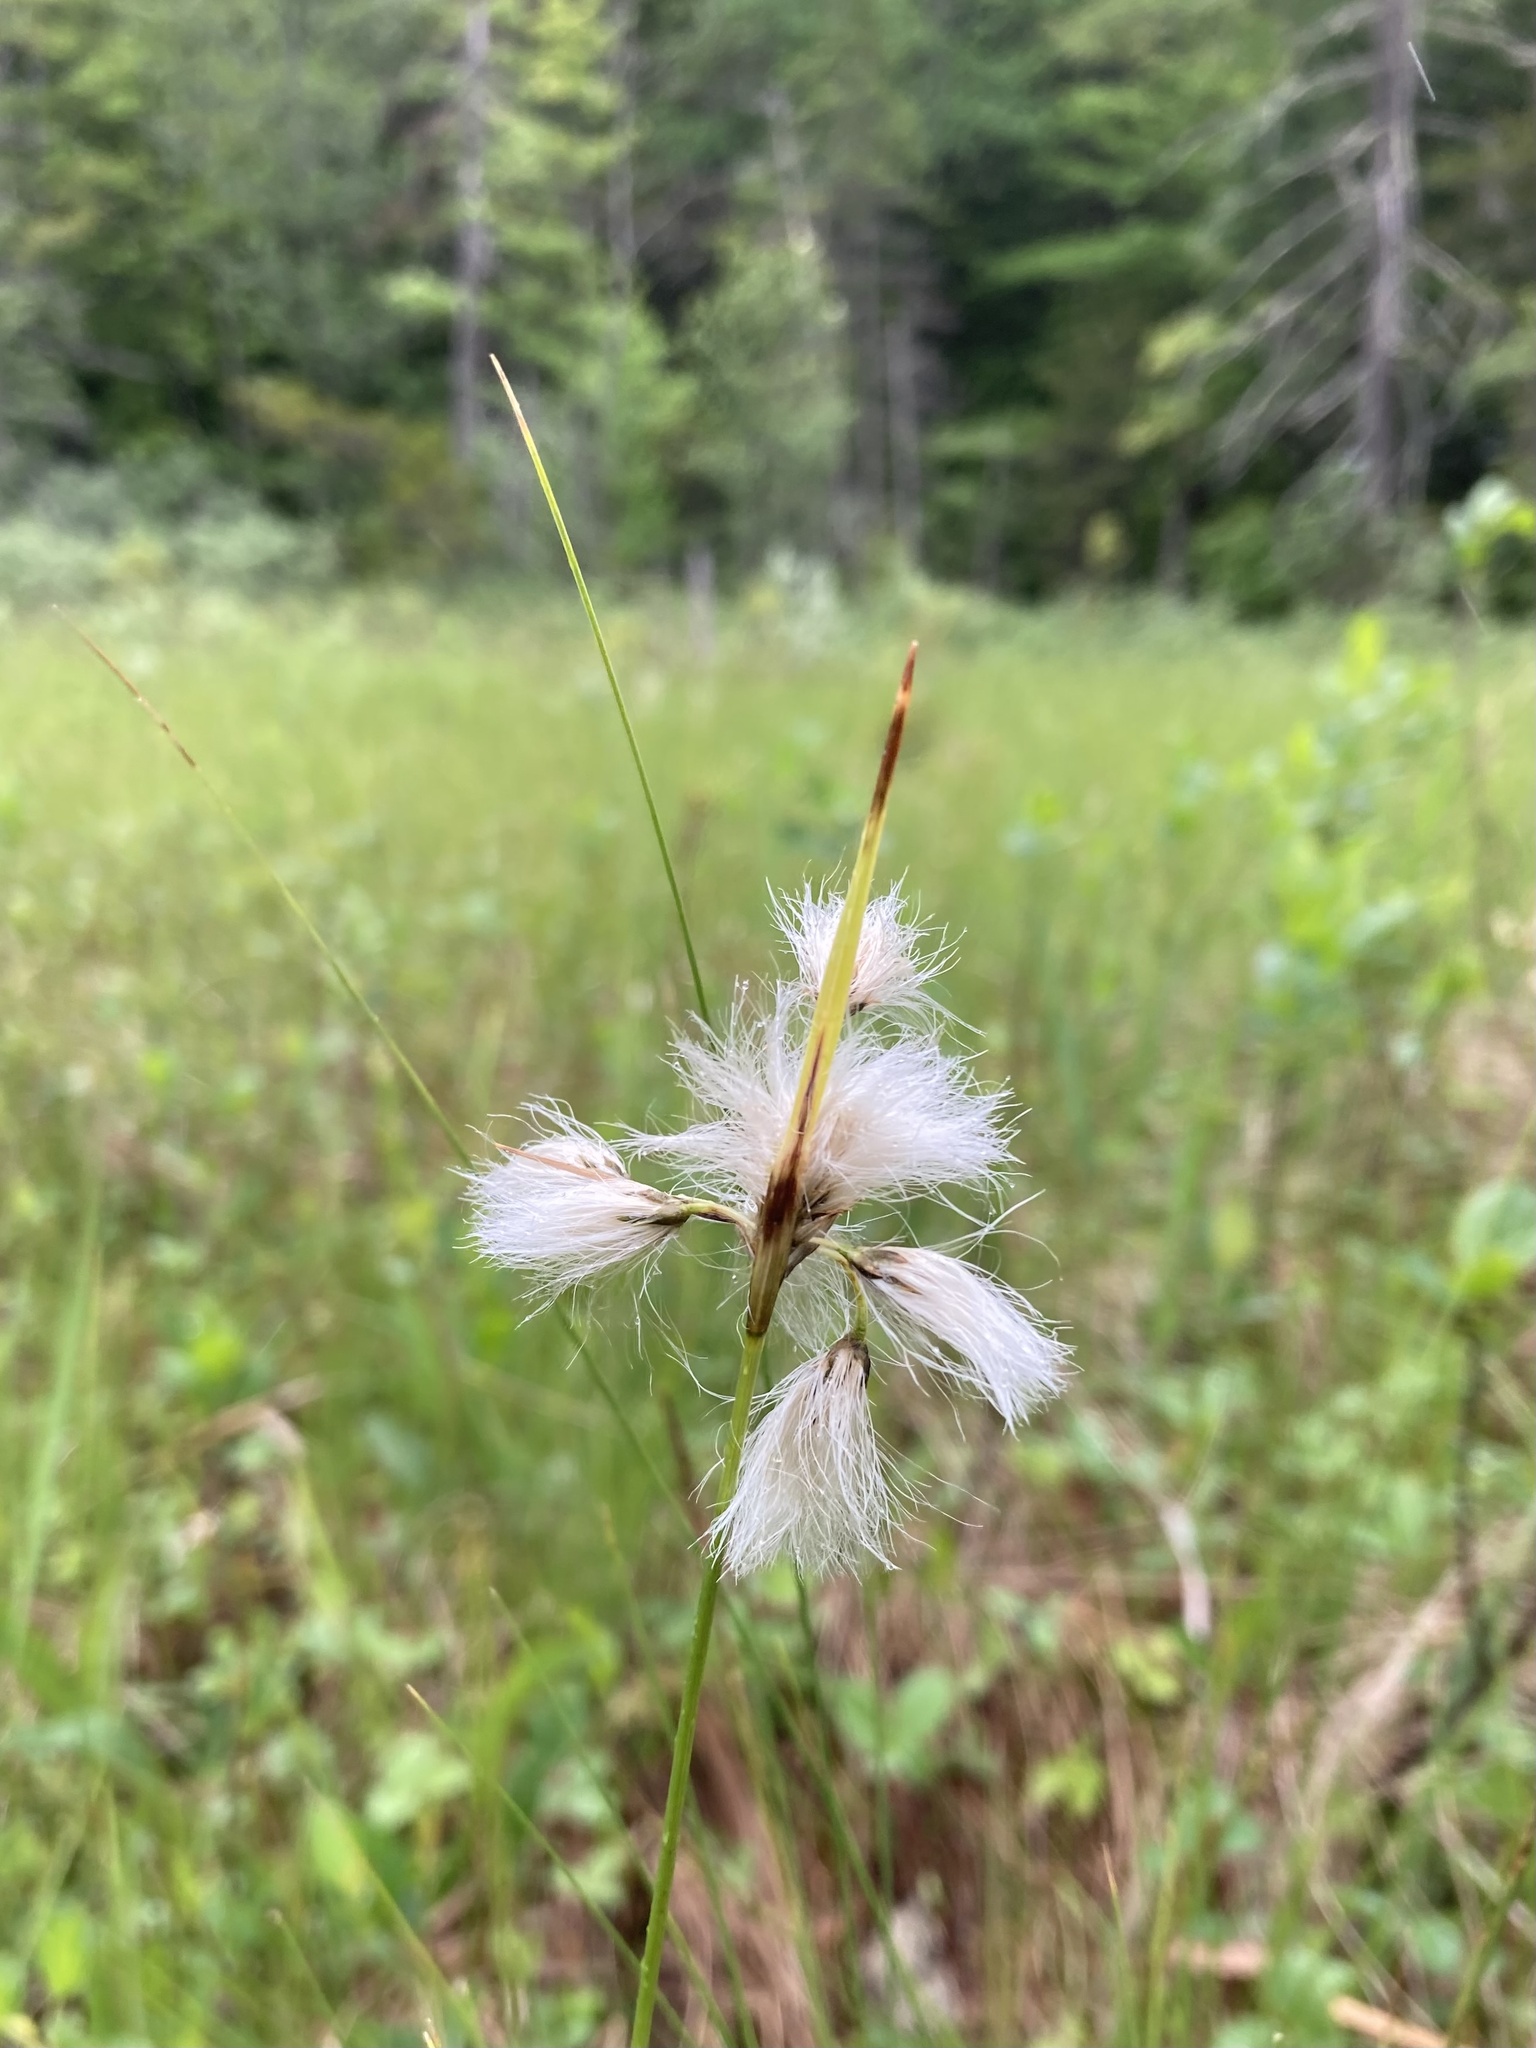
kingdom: Plantae
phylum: Tracheophyta
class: Liliopsida
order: Poales
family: Cyperaceae
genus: Eriophorum
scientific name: Eriophorum viridicarinatum
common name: Green-keeled cottongrass
